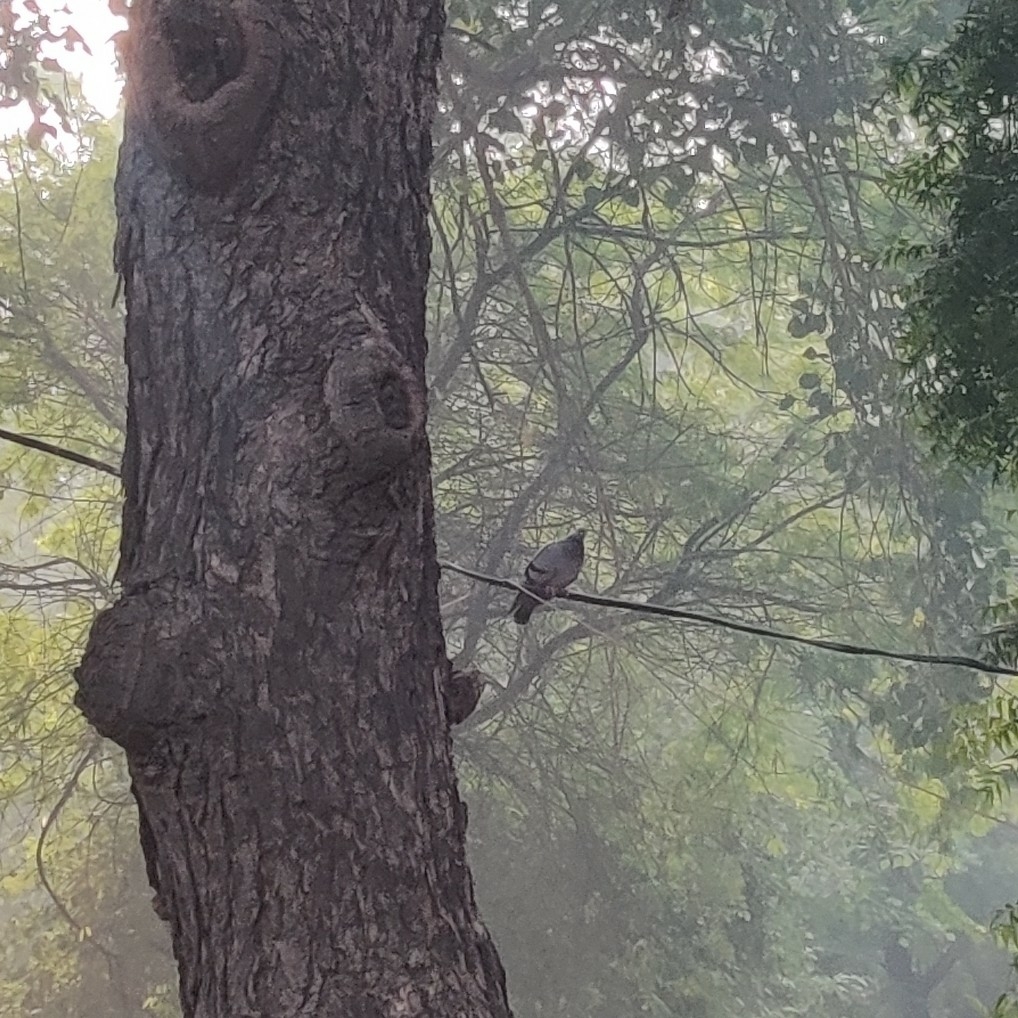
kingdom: Animalia
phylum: Chordata
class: Aves
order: Columbiformes
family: Columbidae
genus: Columba
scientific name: Columba livia
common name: Rock pigeon
